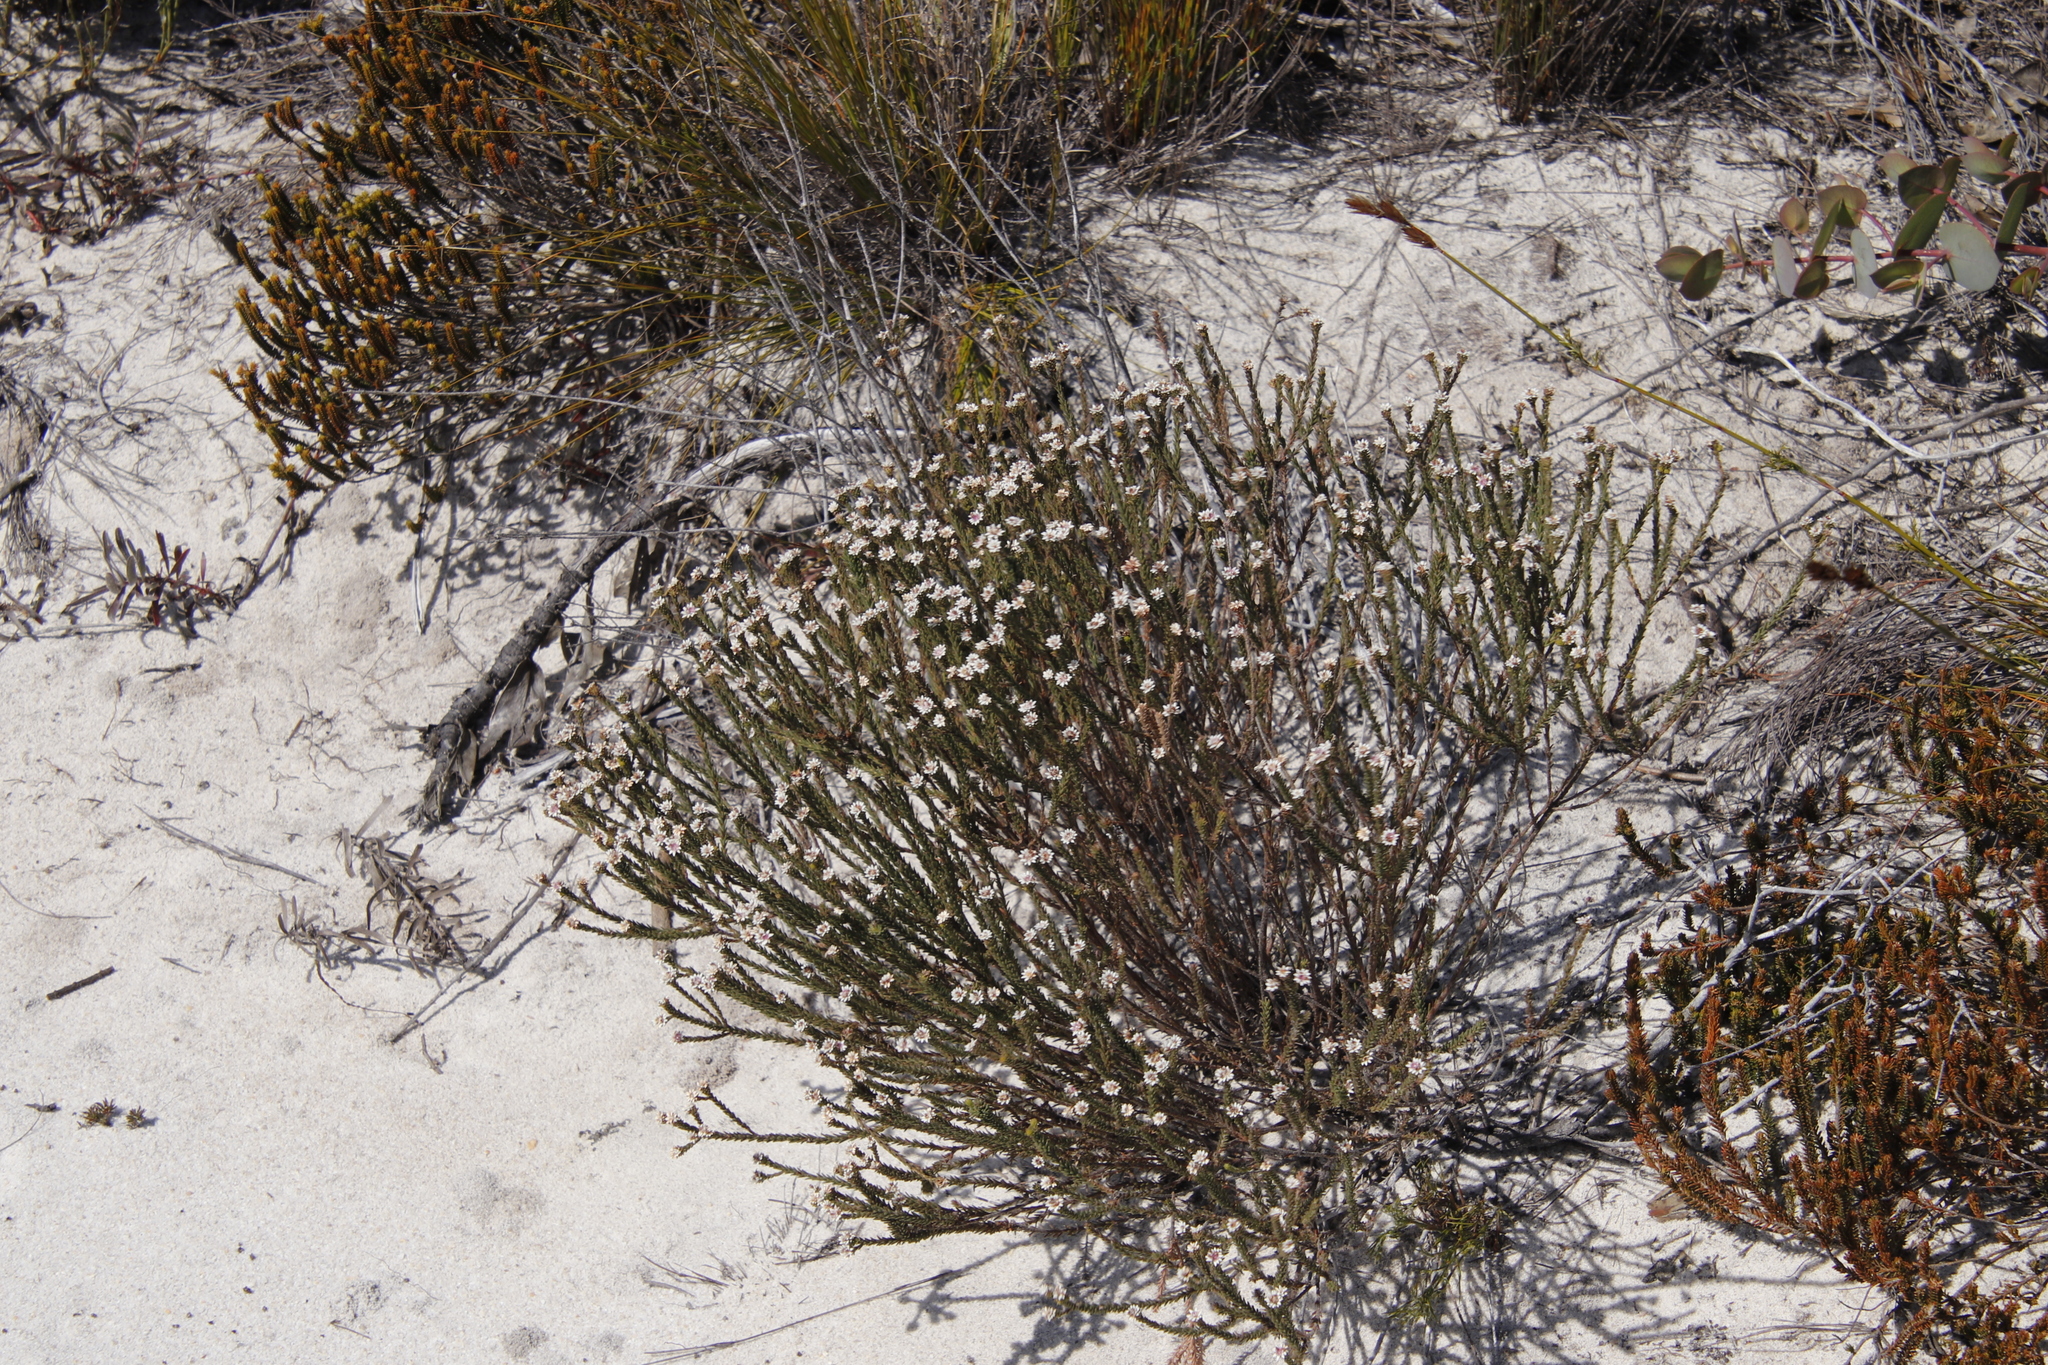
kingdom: Plantae
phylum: Tracheophyta
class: Magnoliopsida
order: Bruniales
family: Bruniaceae
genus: Staavia
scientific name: Staavia radiata
